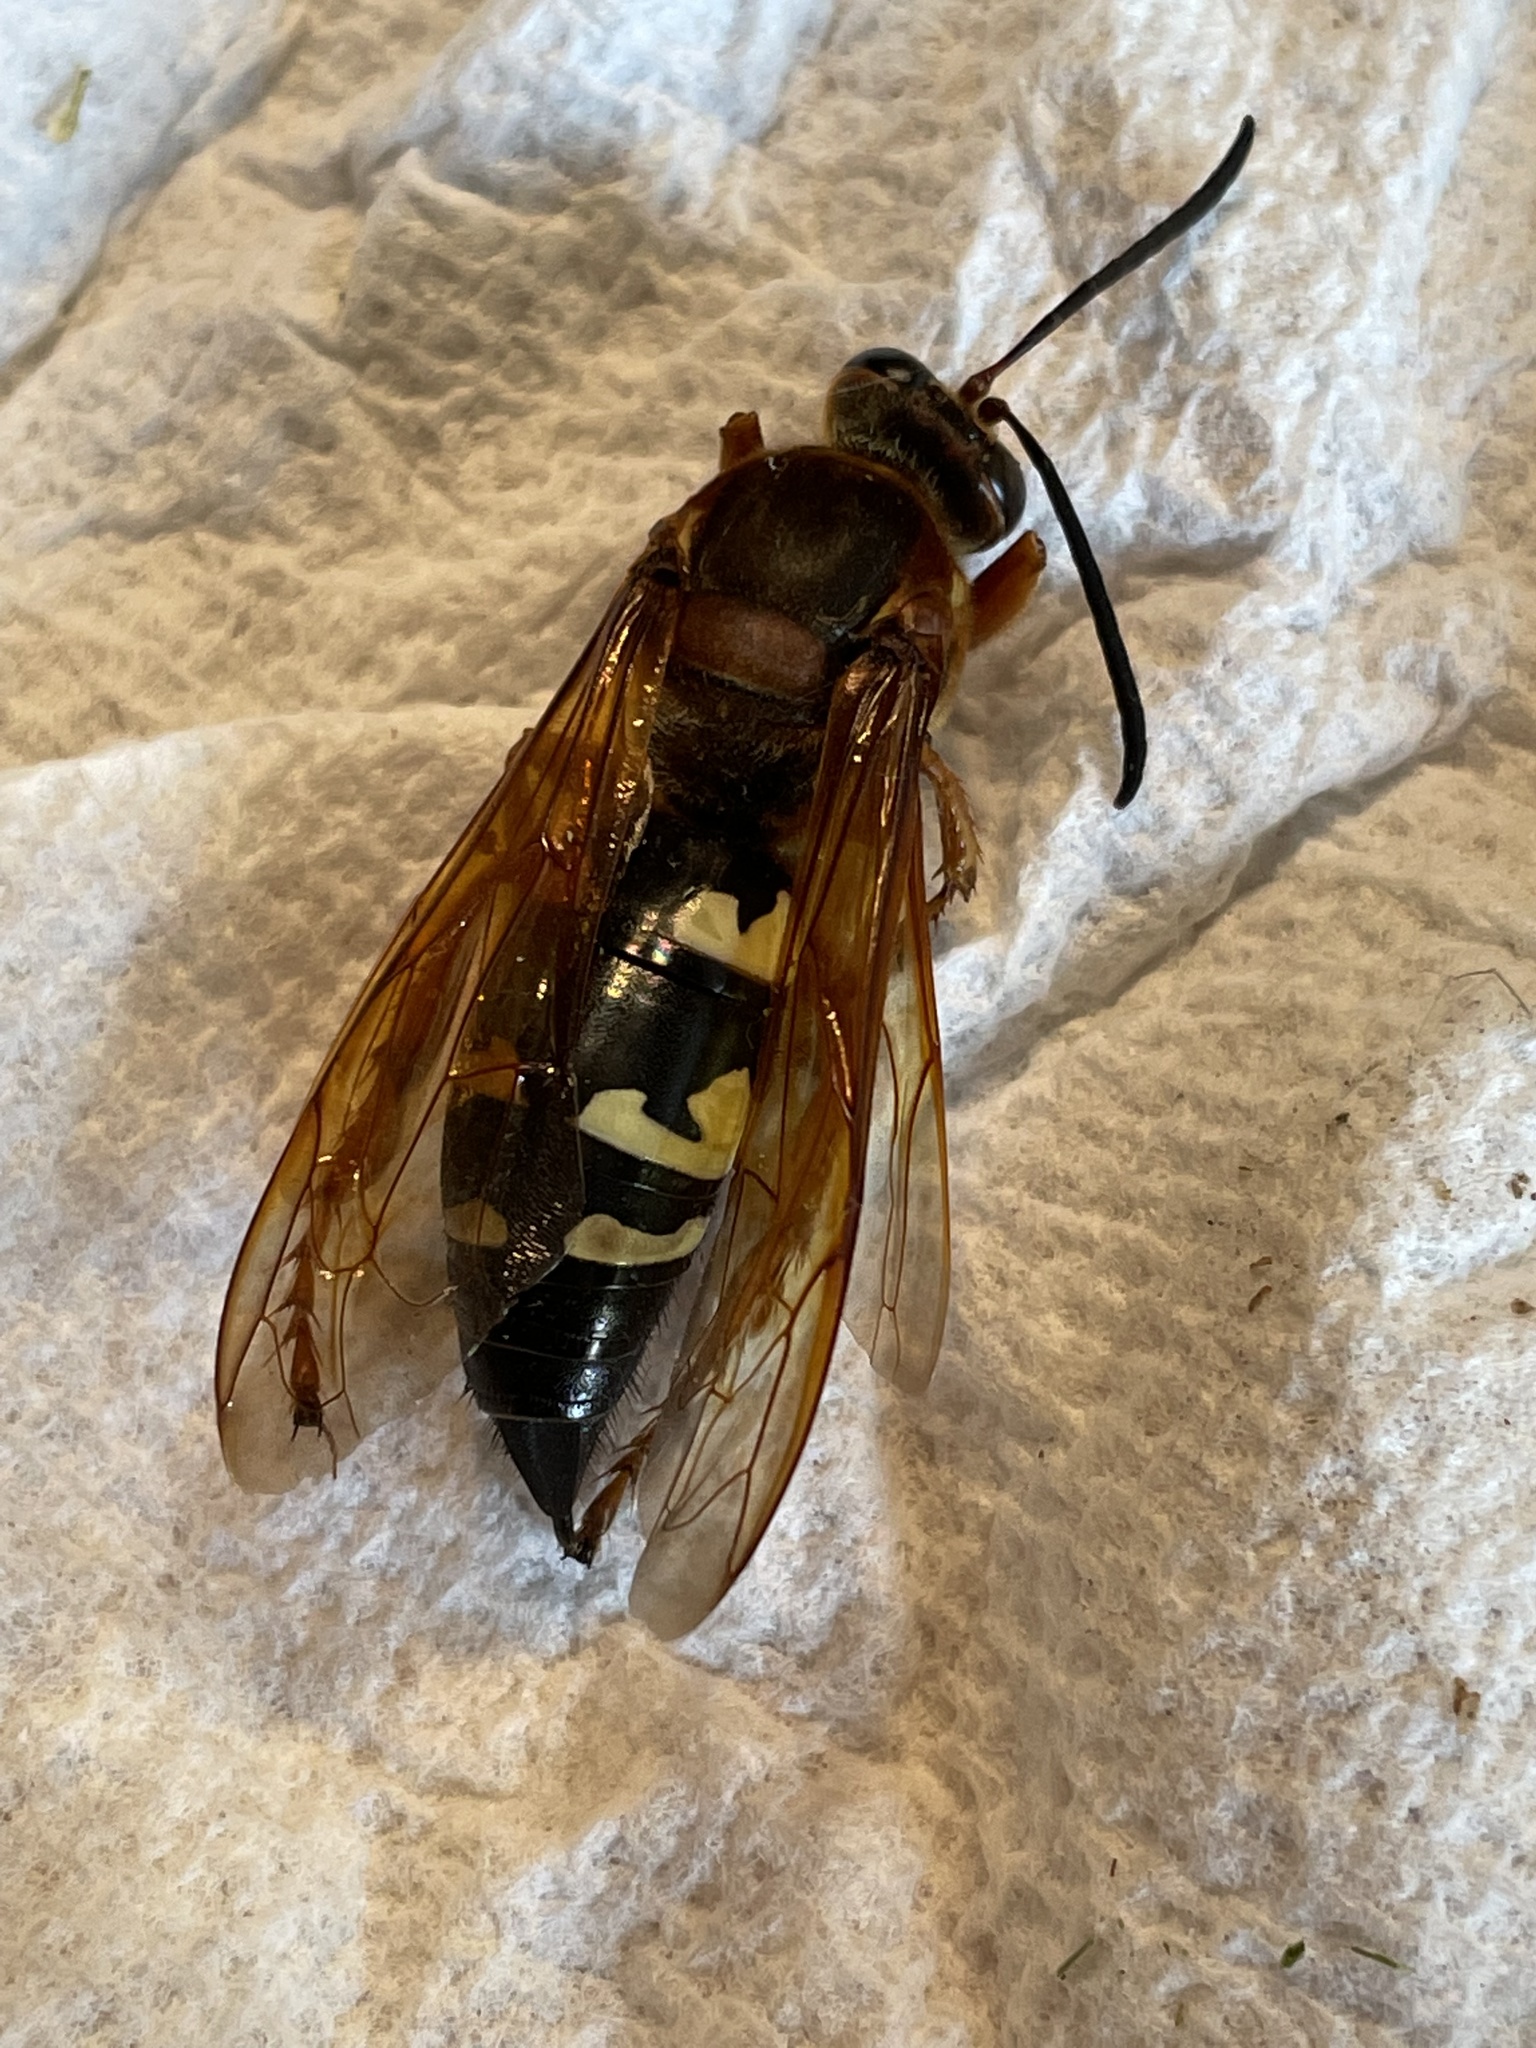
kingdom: Animalia
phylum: Arthropoda
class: Insecta
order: Hymenoptera
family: Crabronidae
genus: Sphecius
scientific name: Sphecius speciosus
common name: Cicada killer
